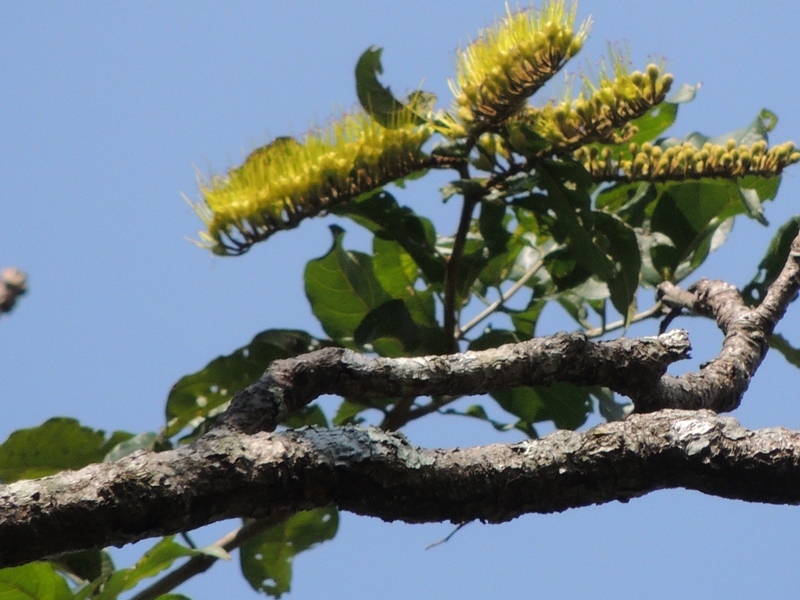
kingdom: Plantae
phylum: Tracheophyta
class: Magnoliopsida
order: Myrtales
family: Combretaceae
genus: Combretum
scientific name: Combretum fruticosum
